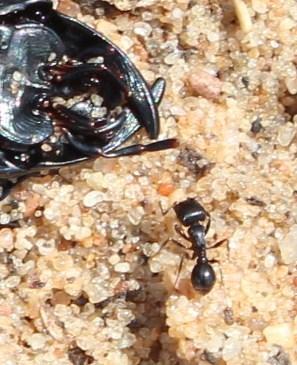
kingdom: Animalia
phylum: Arthropoda
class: Insecta
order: Hymenoptera
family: Formicidae
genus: Tetramorium
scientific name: Tetramorium signatum
